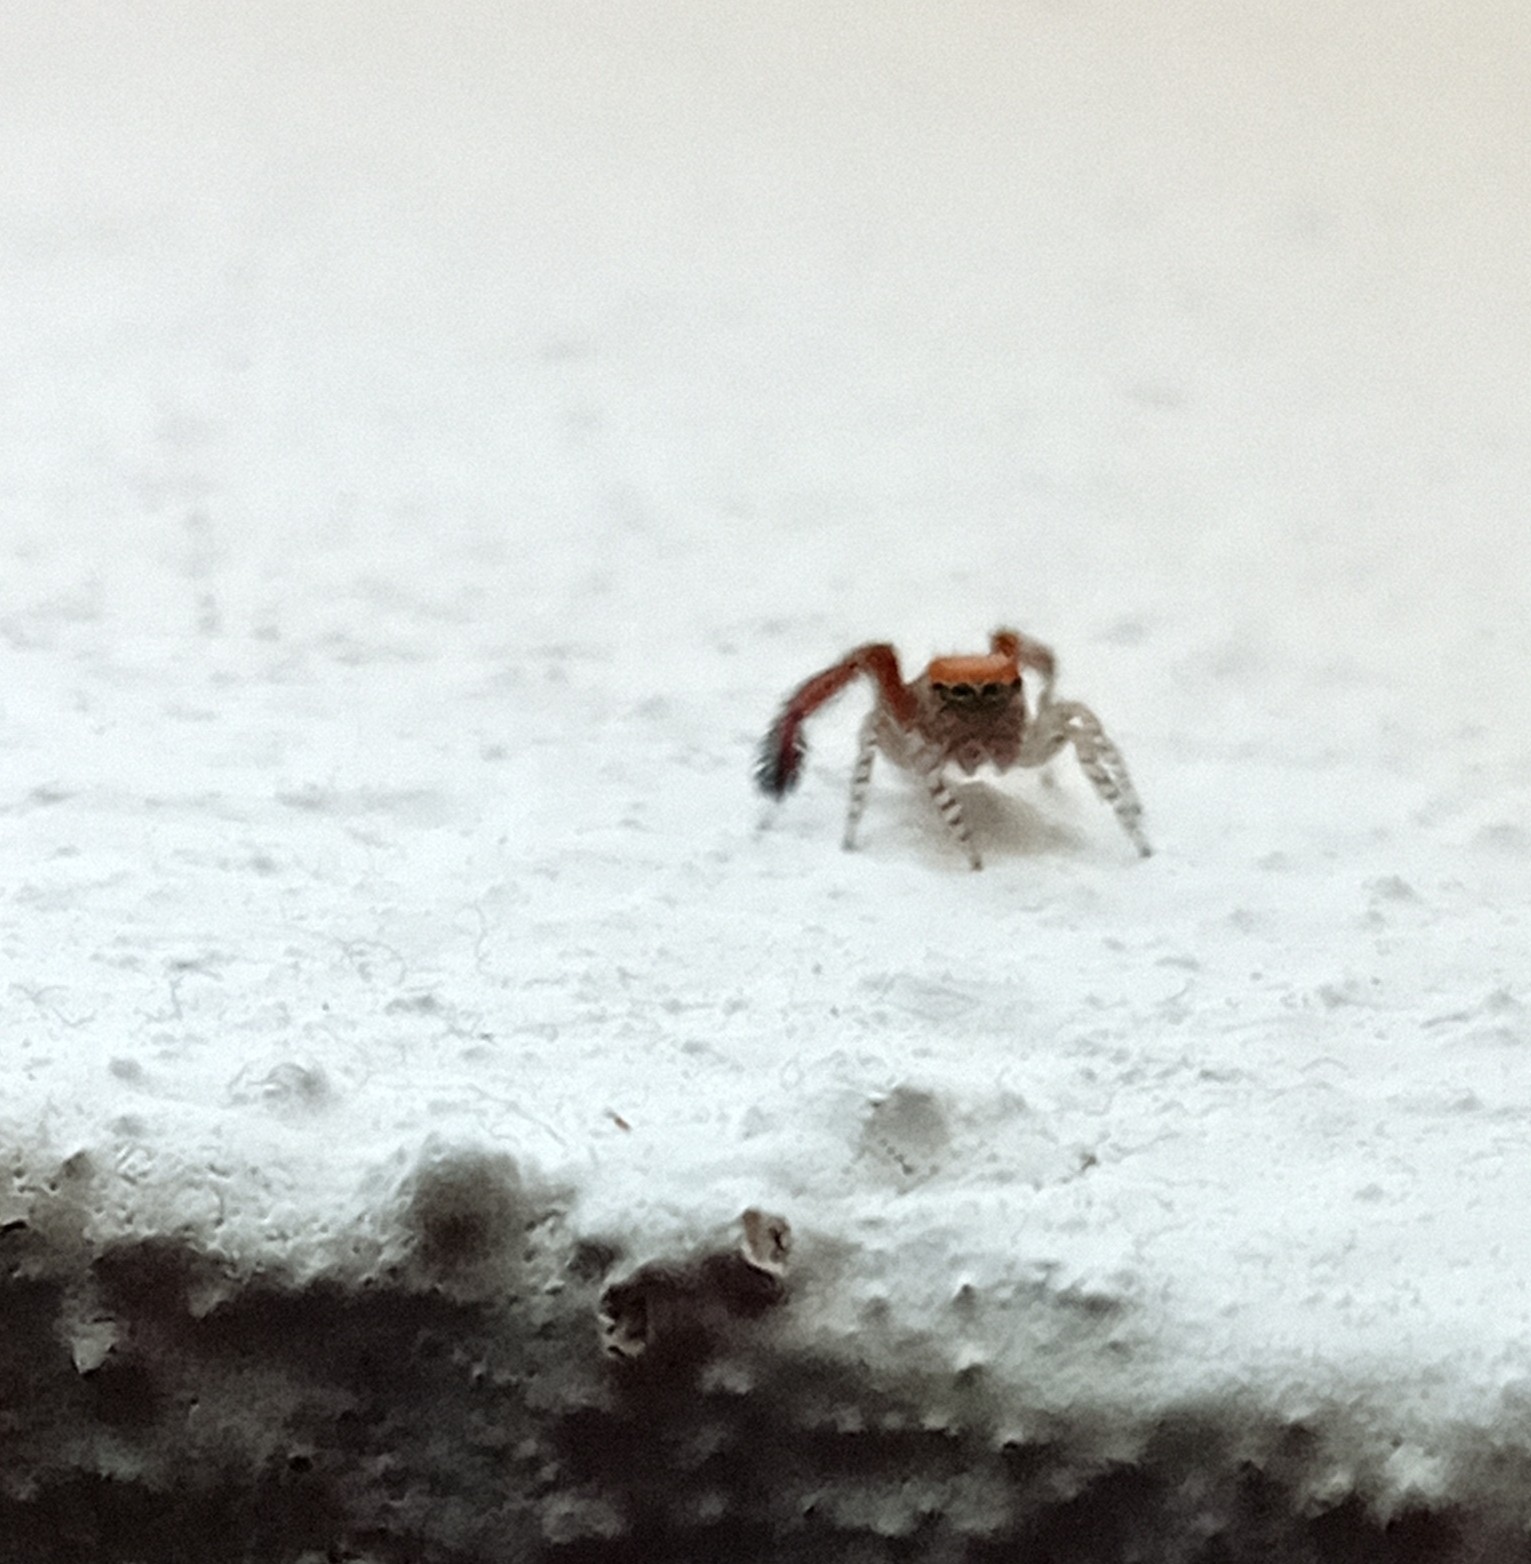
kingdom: Animalia
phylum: Arthropoda
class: Arachnida
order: Araneae
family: Salticidae
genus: Saitis
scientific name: Saitis barbipes
